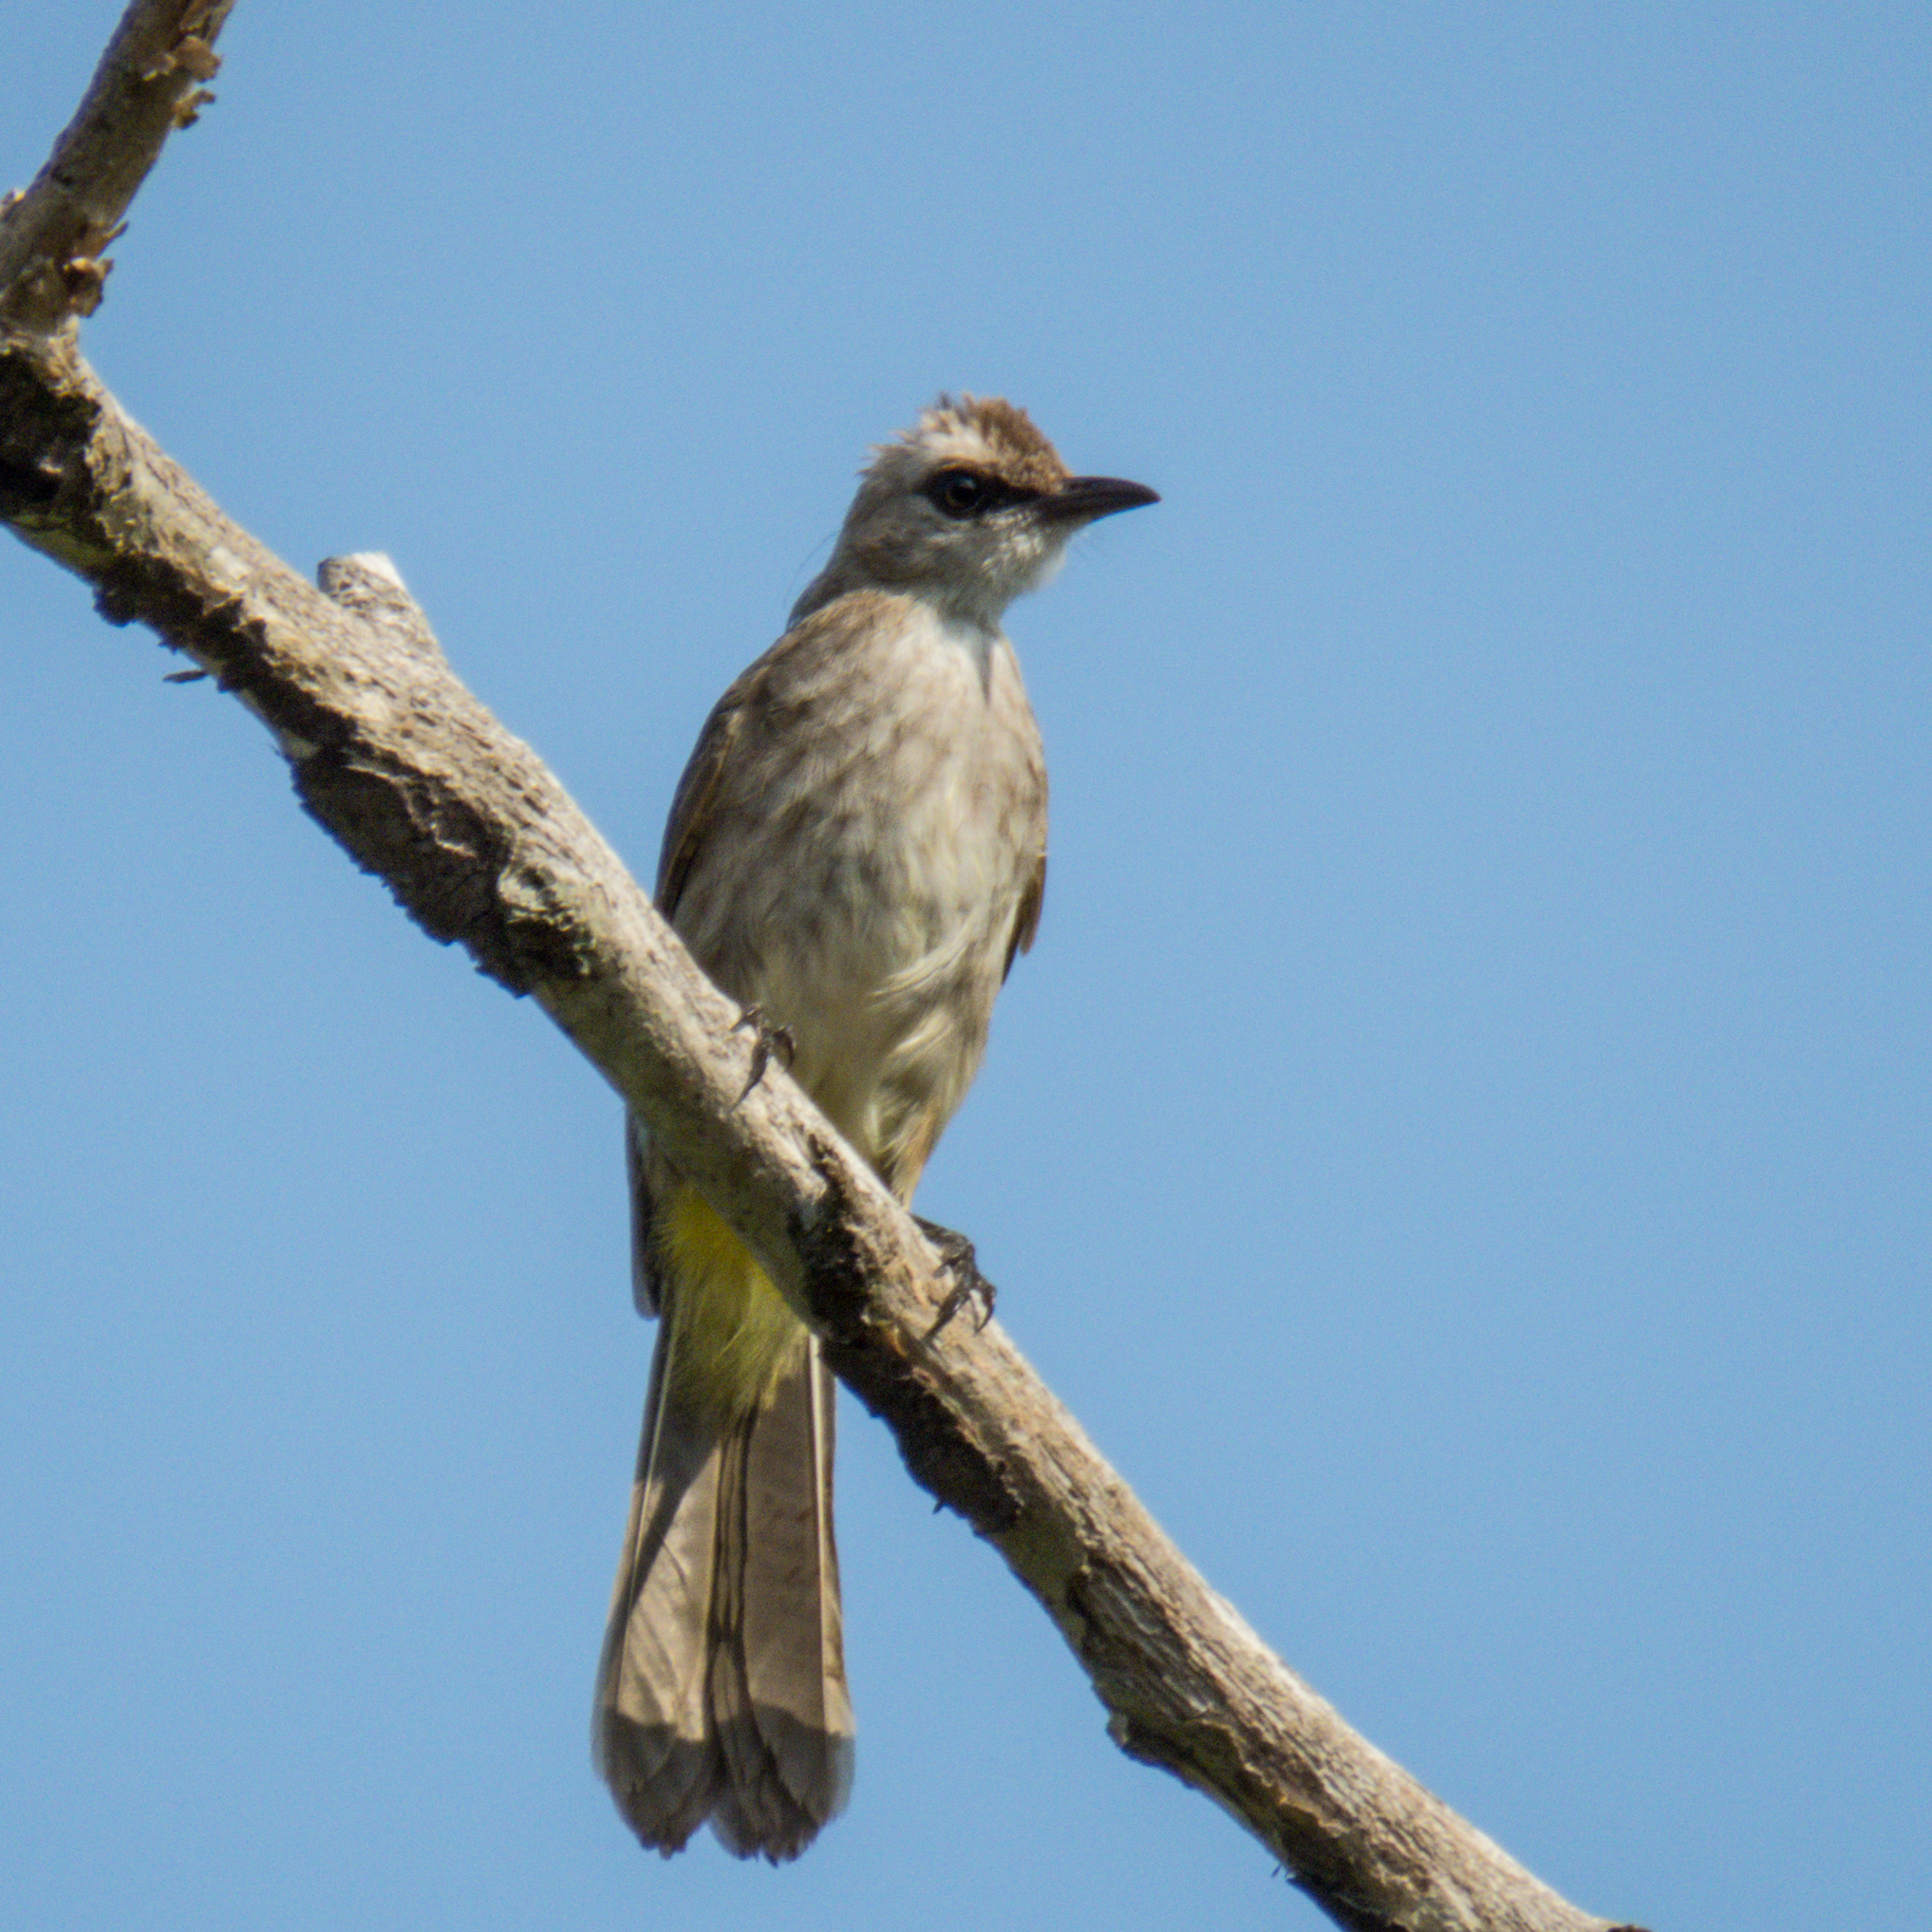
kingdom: Animalia
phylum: Chordata
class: Aves
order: Passeriformes
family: Pycnonotidae
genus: Pycnonotus
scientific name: Pycnonotus goiavier
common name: Yellow-vented bulbul
